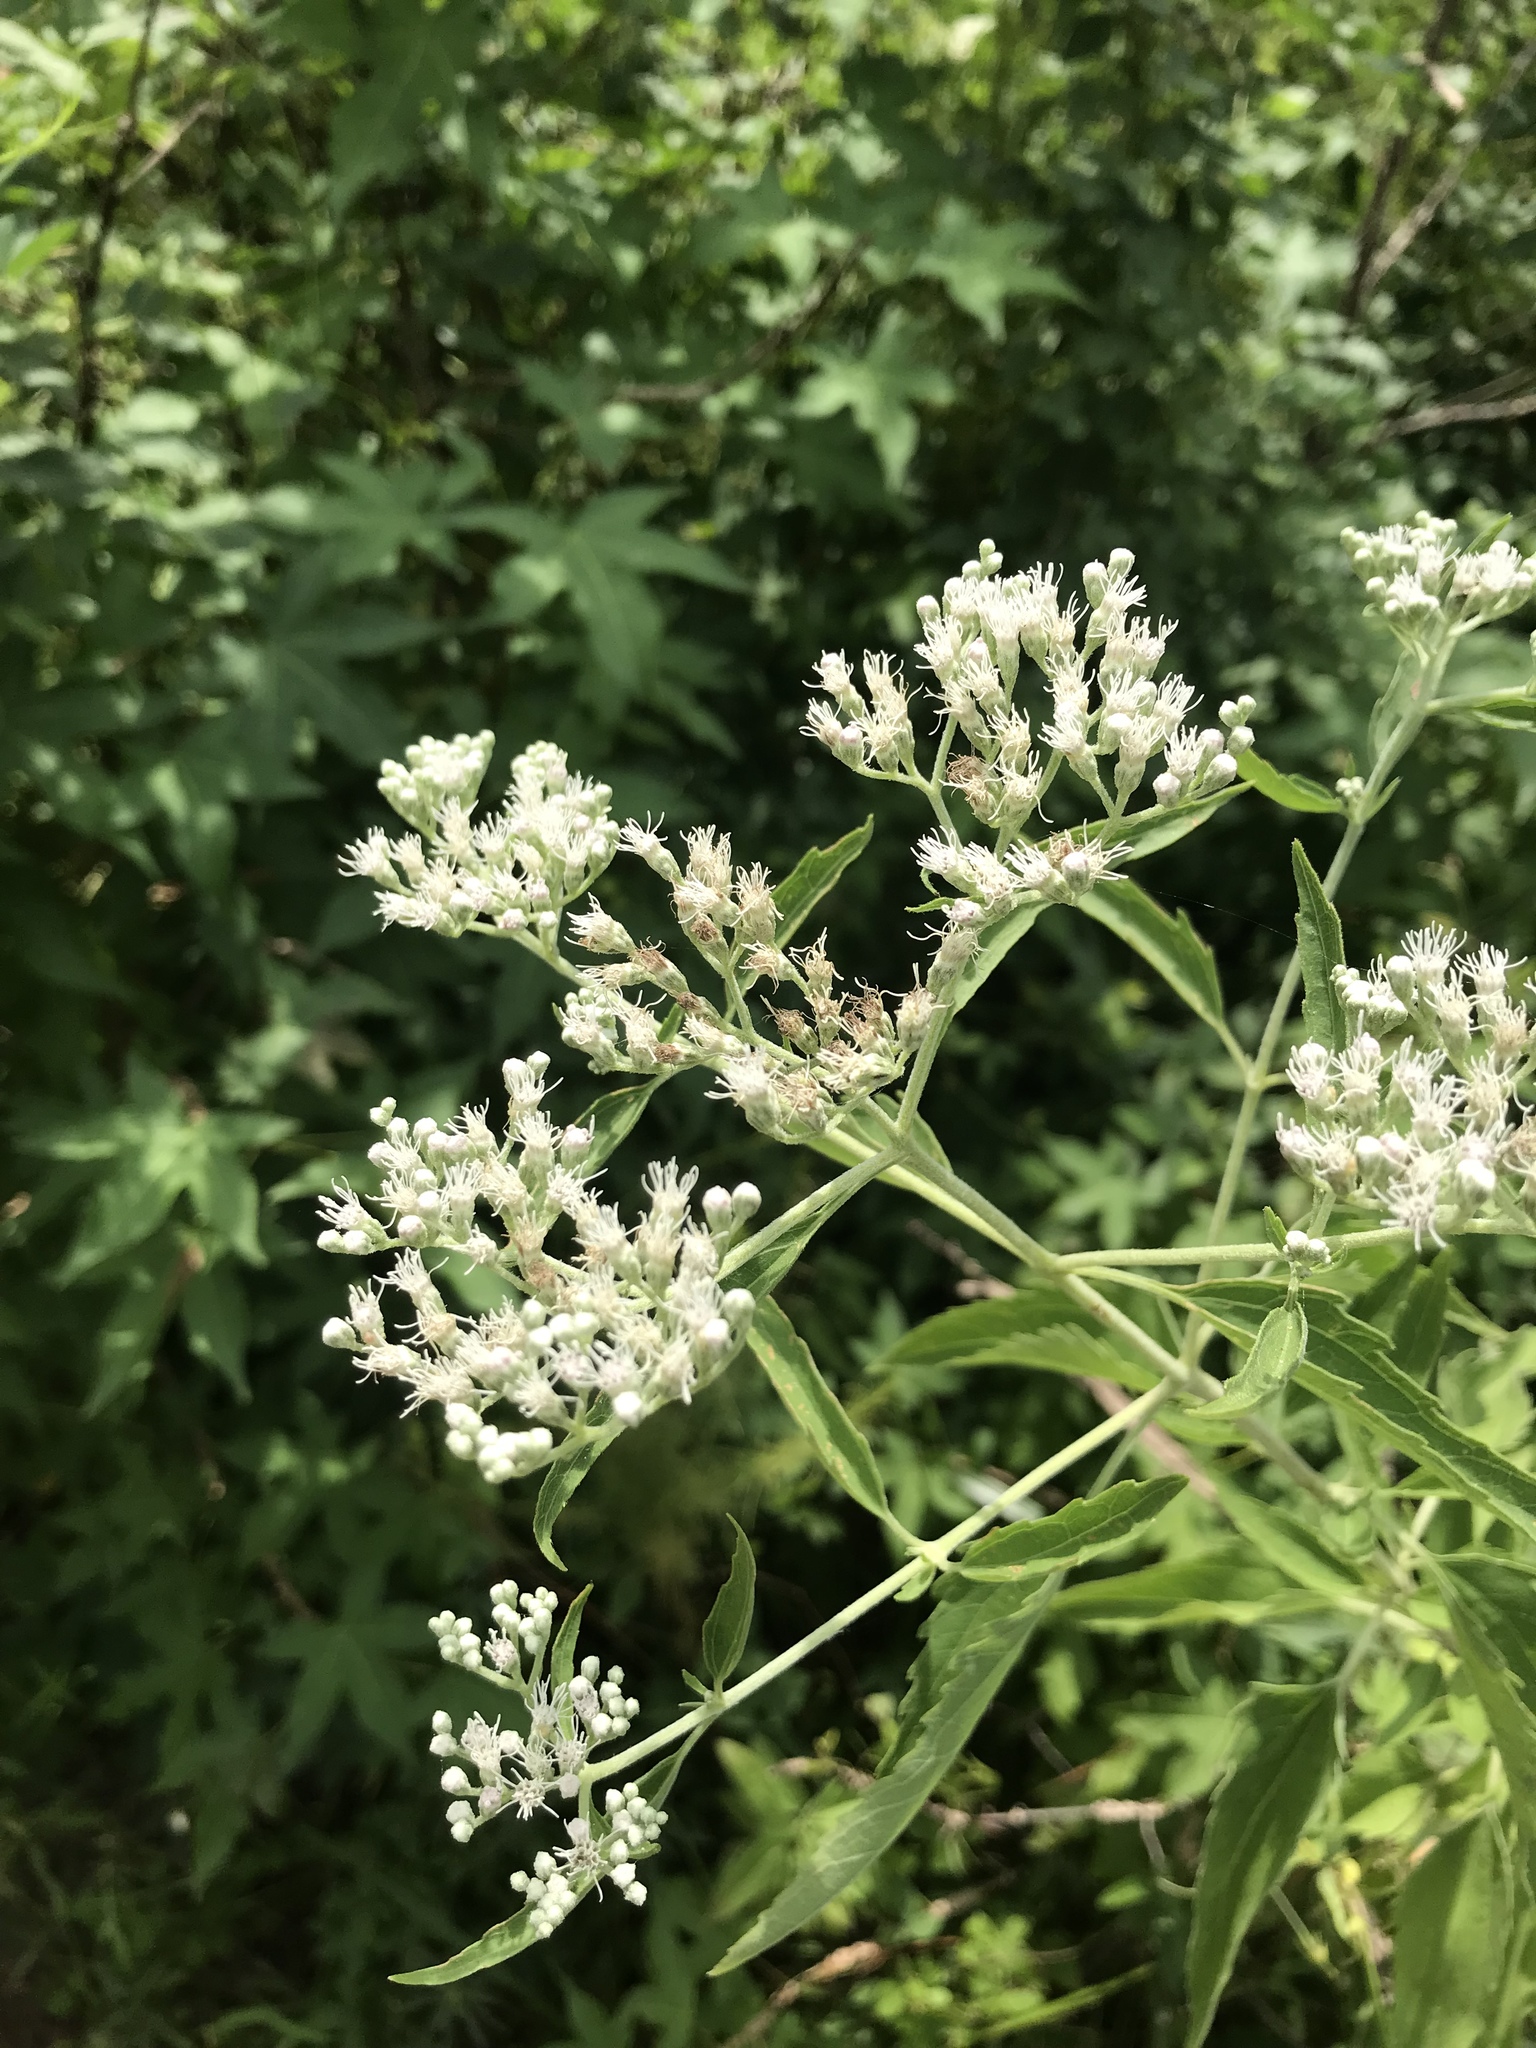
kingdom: Plantae
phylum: Tracheophyta
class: Magnoliopsida
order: Asterales
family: Asteraceae
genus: Eupatorium
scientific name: Eupatorium serotinum
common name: Late boneset
